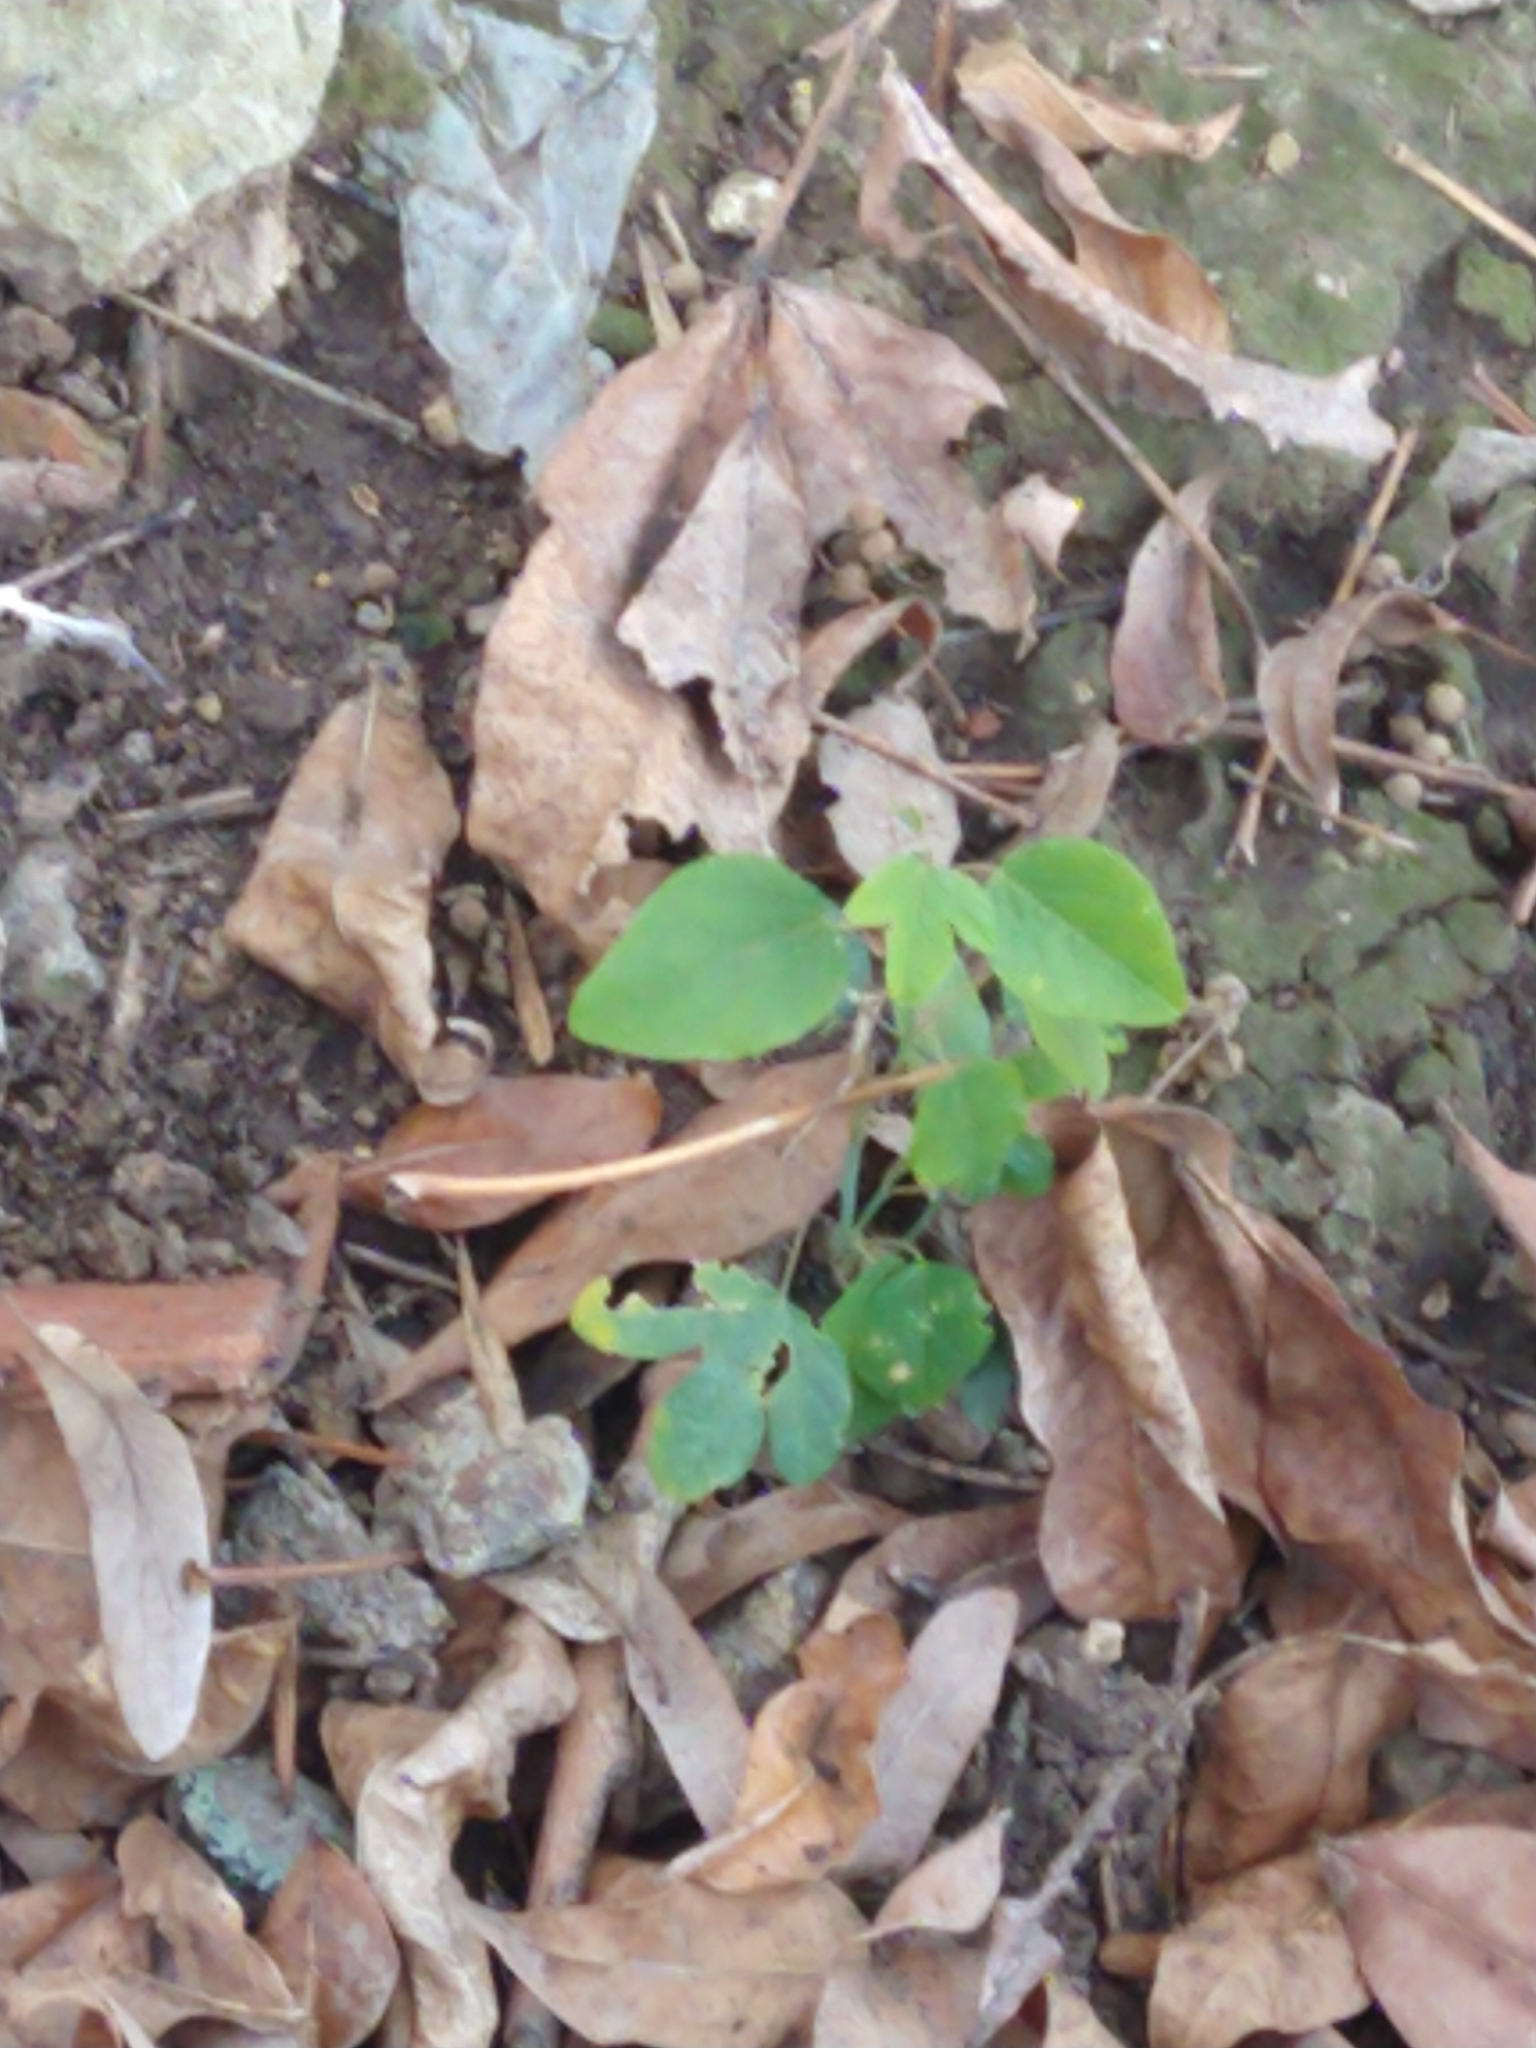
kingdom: Plantae
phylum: Tracheophyta
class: Magnoliopsida
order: Malpighiales
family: Passifloraceae
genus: Passiflora
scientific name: Passiflora caerulea
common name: Blue passionflower
